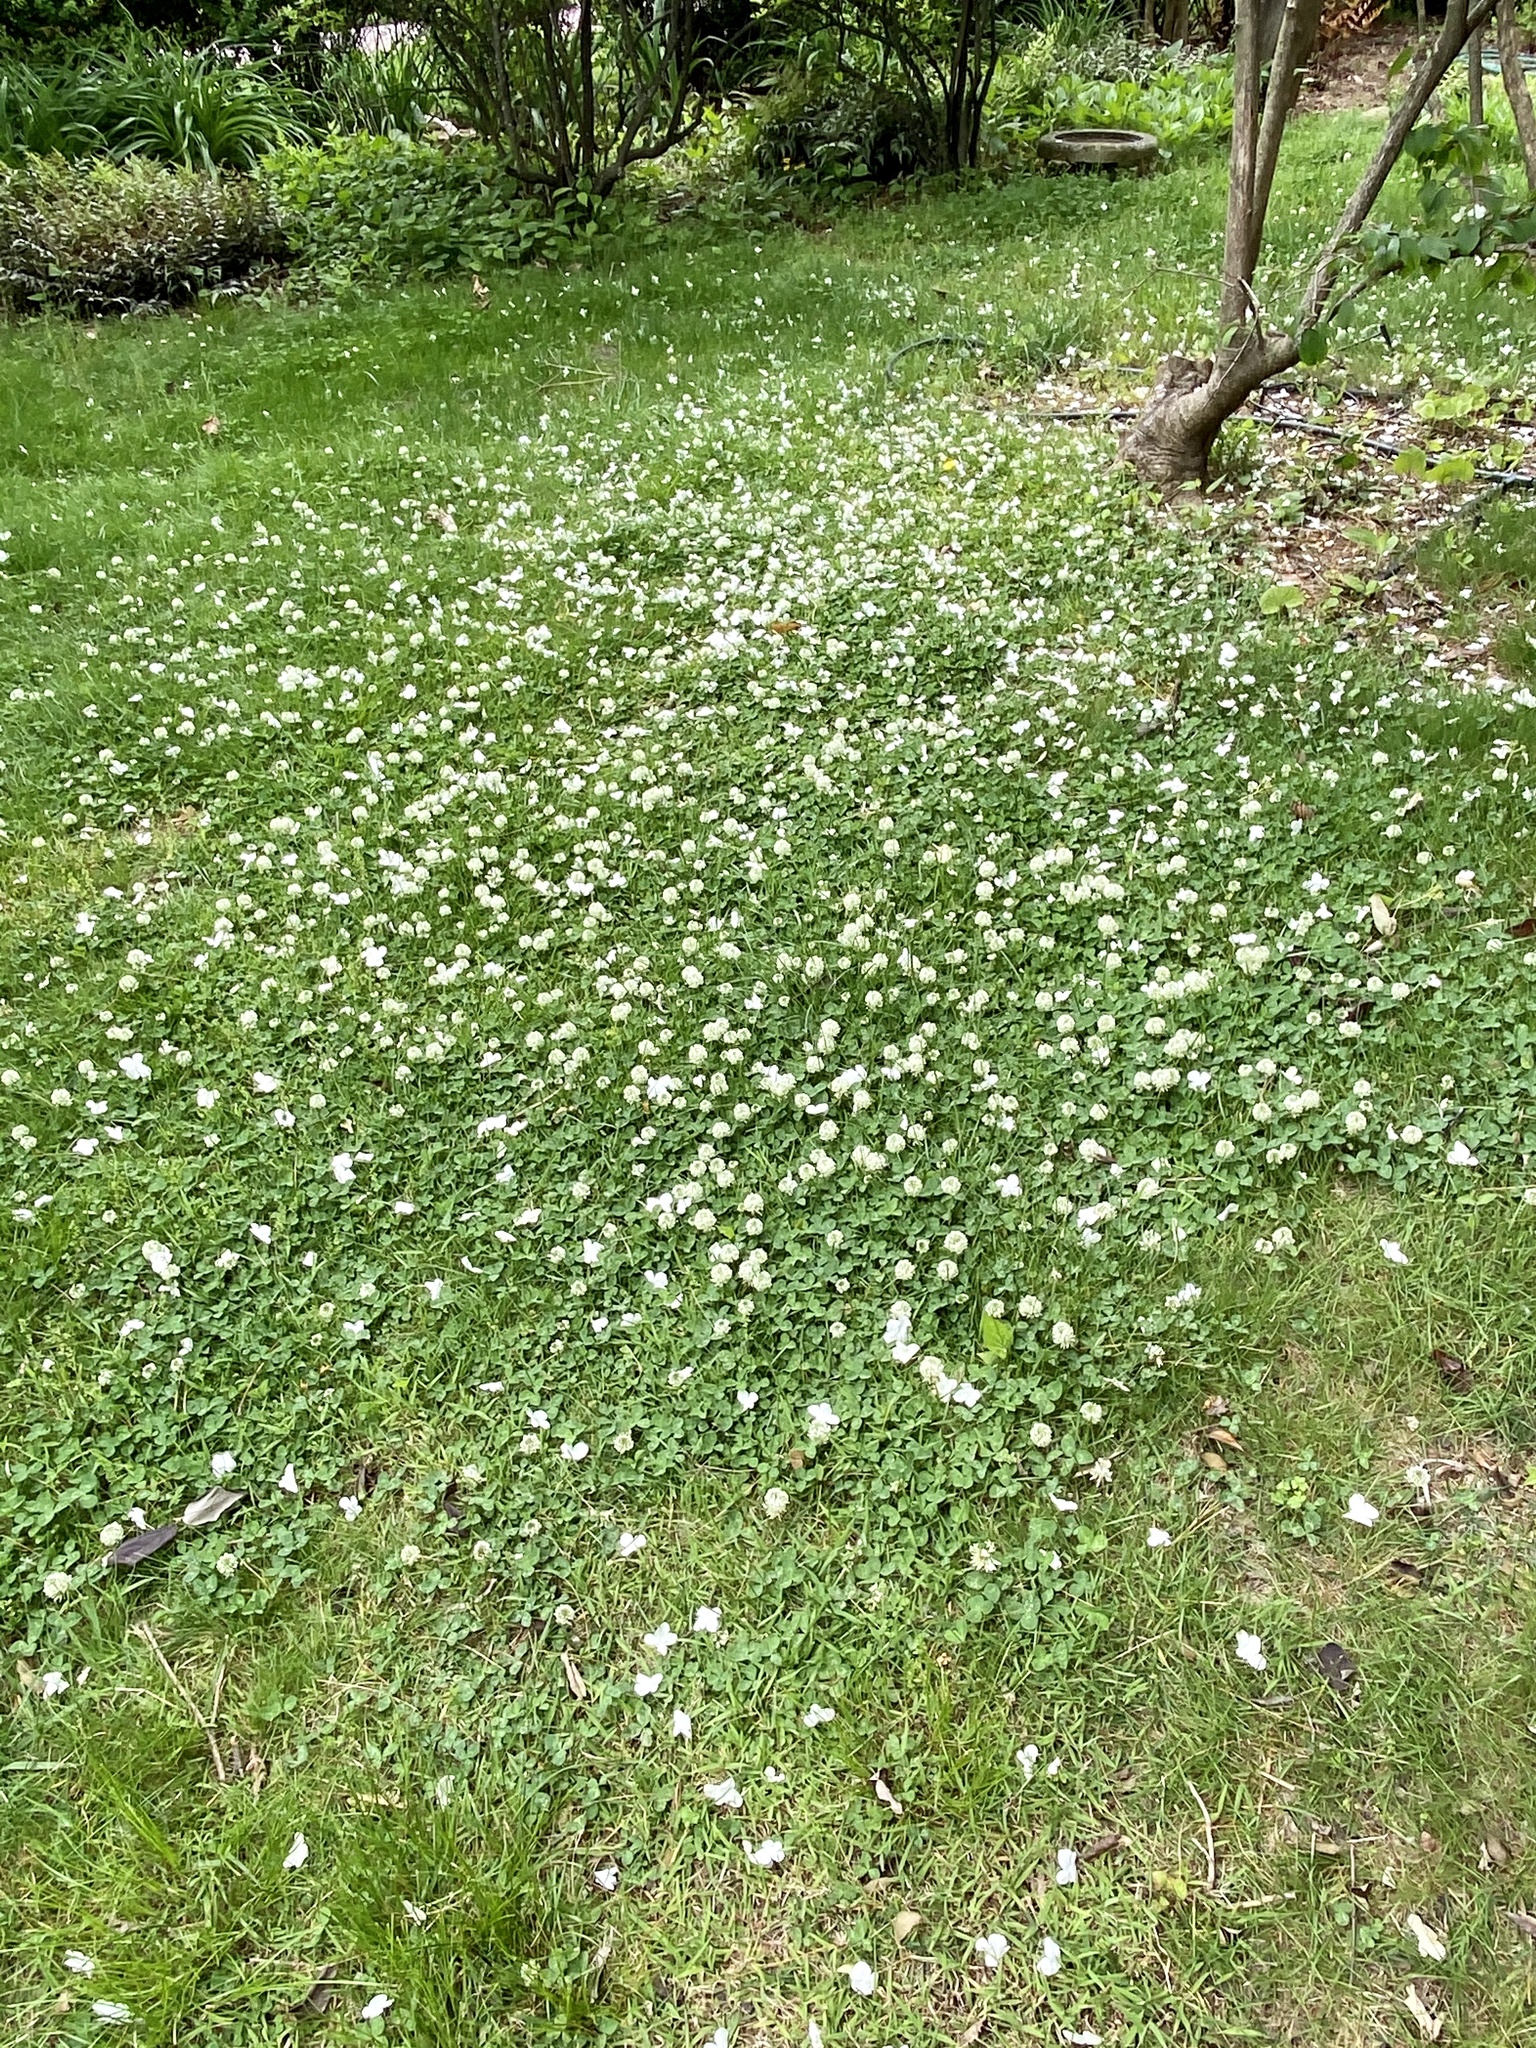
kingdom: Plantae
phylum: Tracheophyta
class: Magnoliopsida
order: Fabales
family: Fabaceae
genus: Trifolium
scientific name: Trifolium repens
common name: White clover
